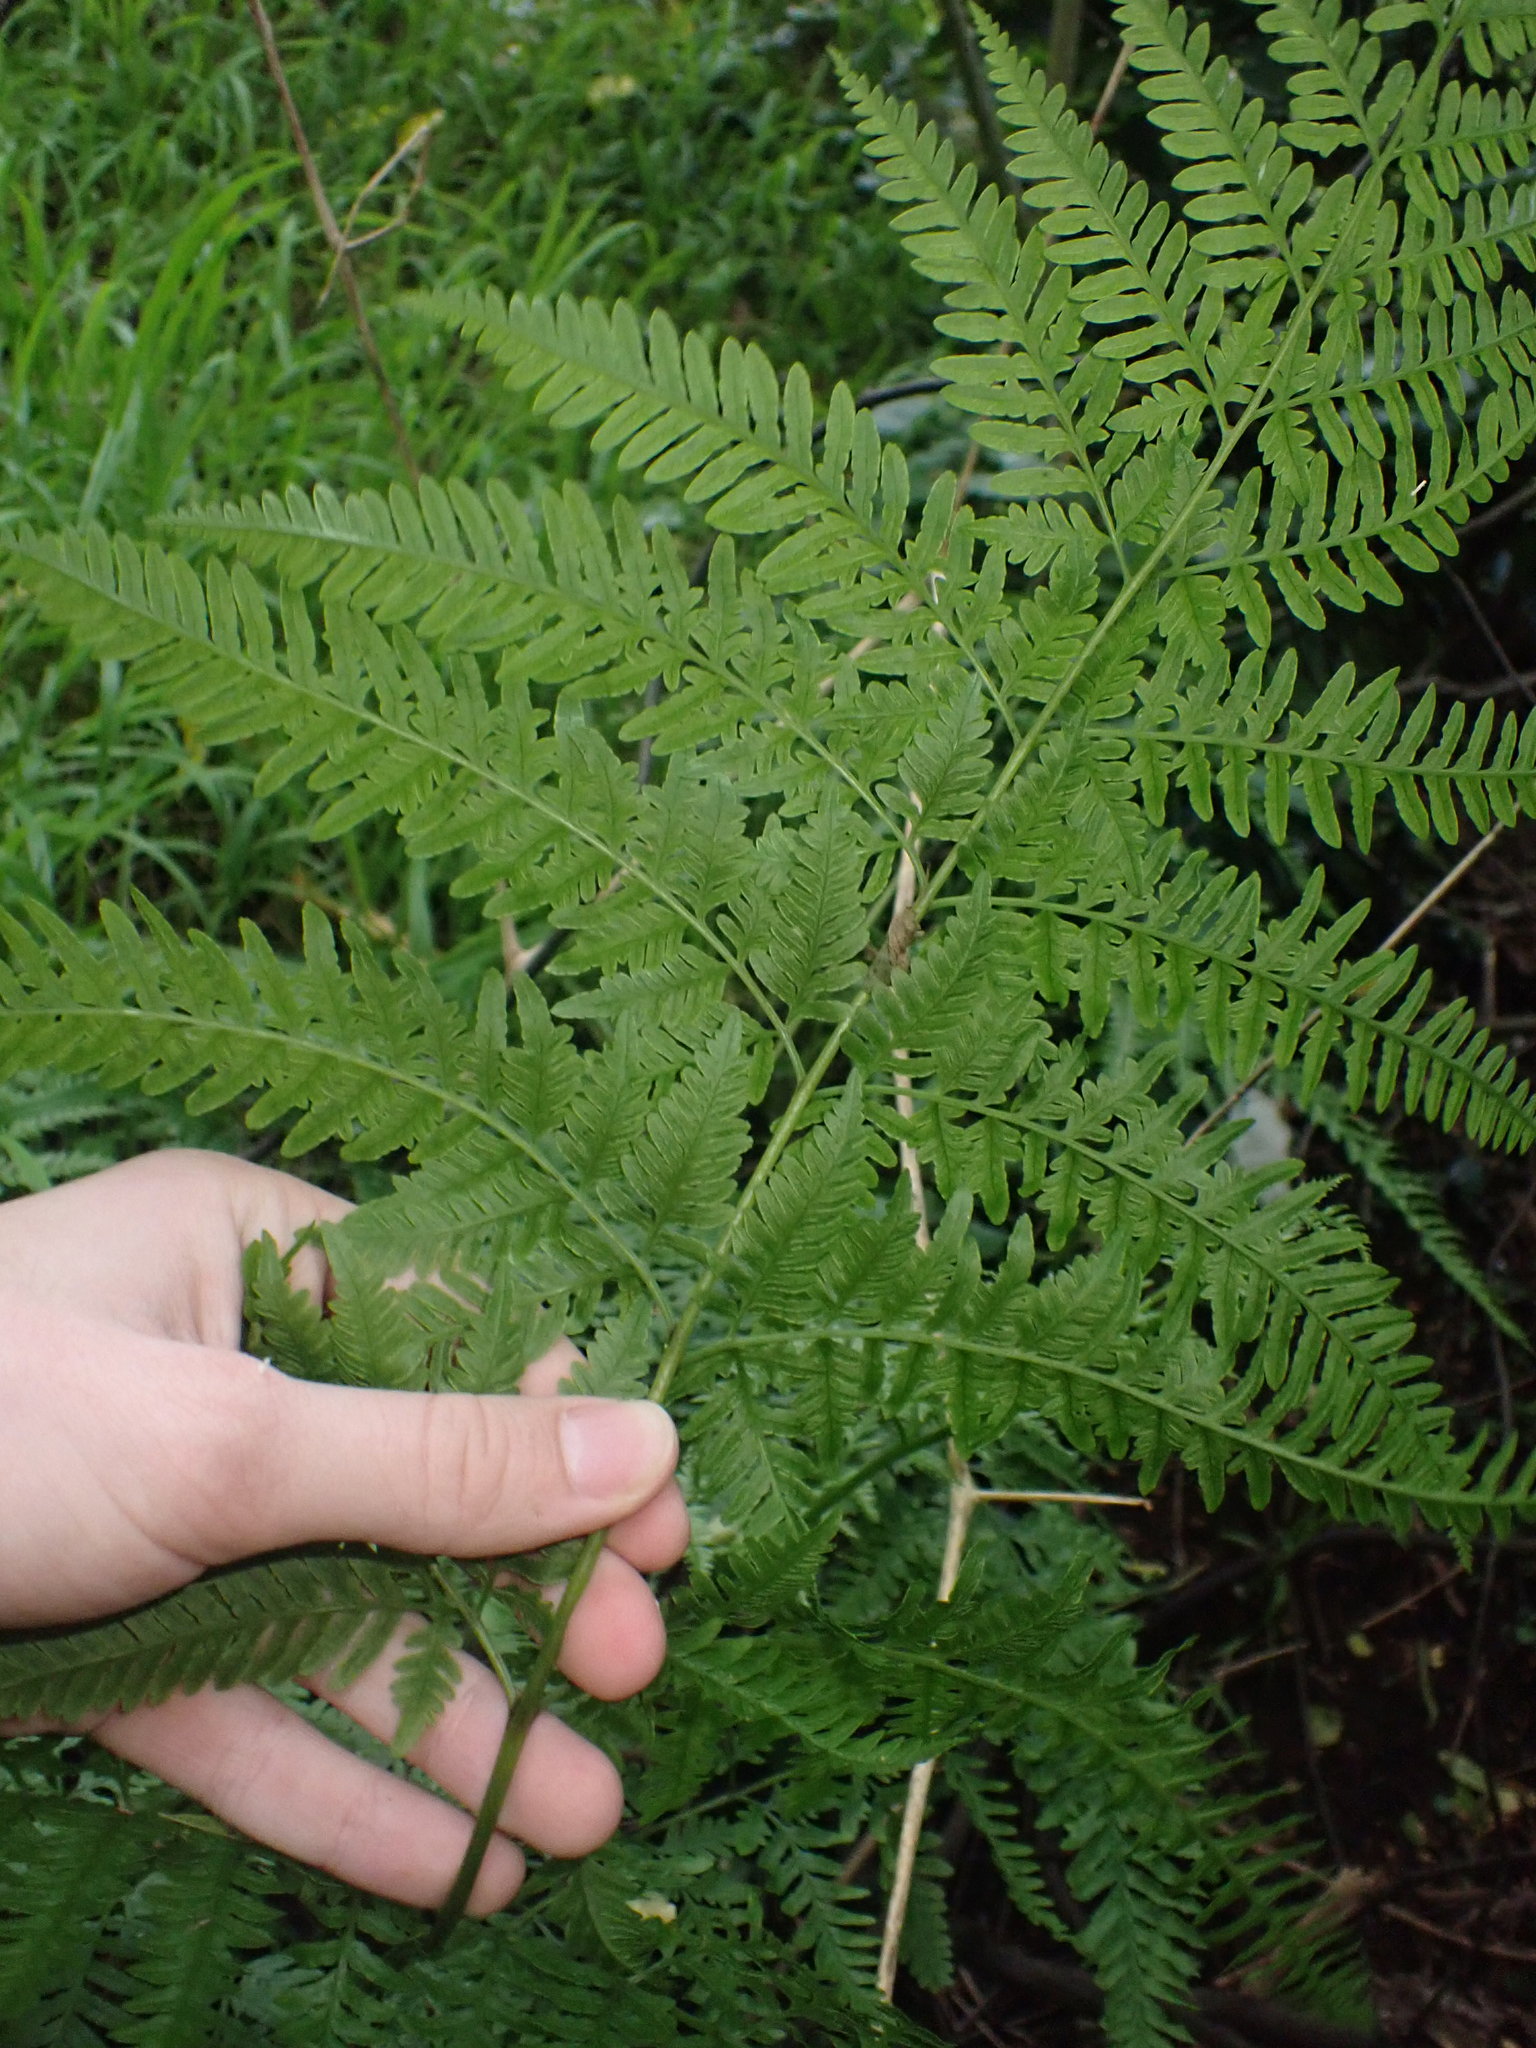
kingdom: Plantae
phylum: Tracheophyta
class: Polypodiopsida
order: Polypodiales
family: Pteridaceae
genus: Pteris
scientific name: Pteris tremula
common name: Australian brake
